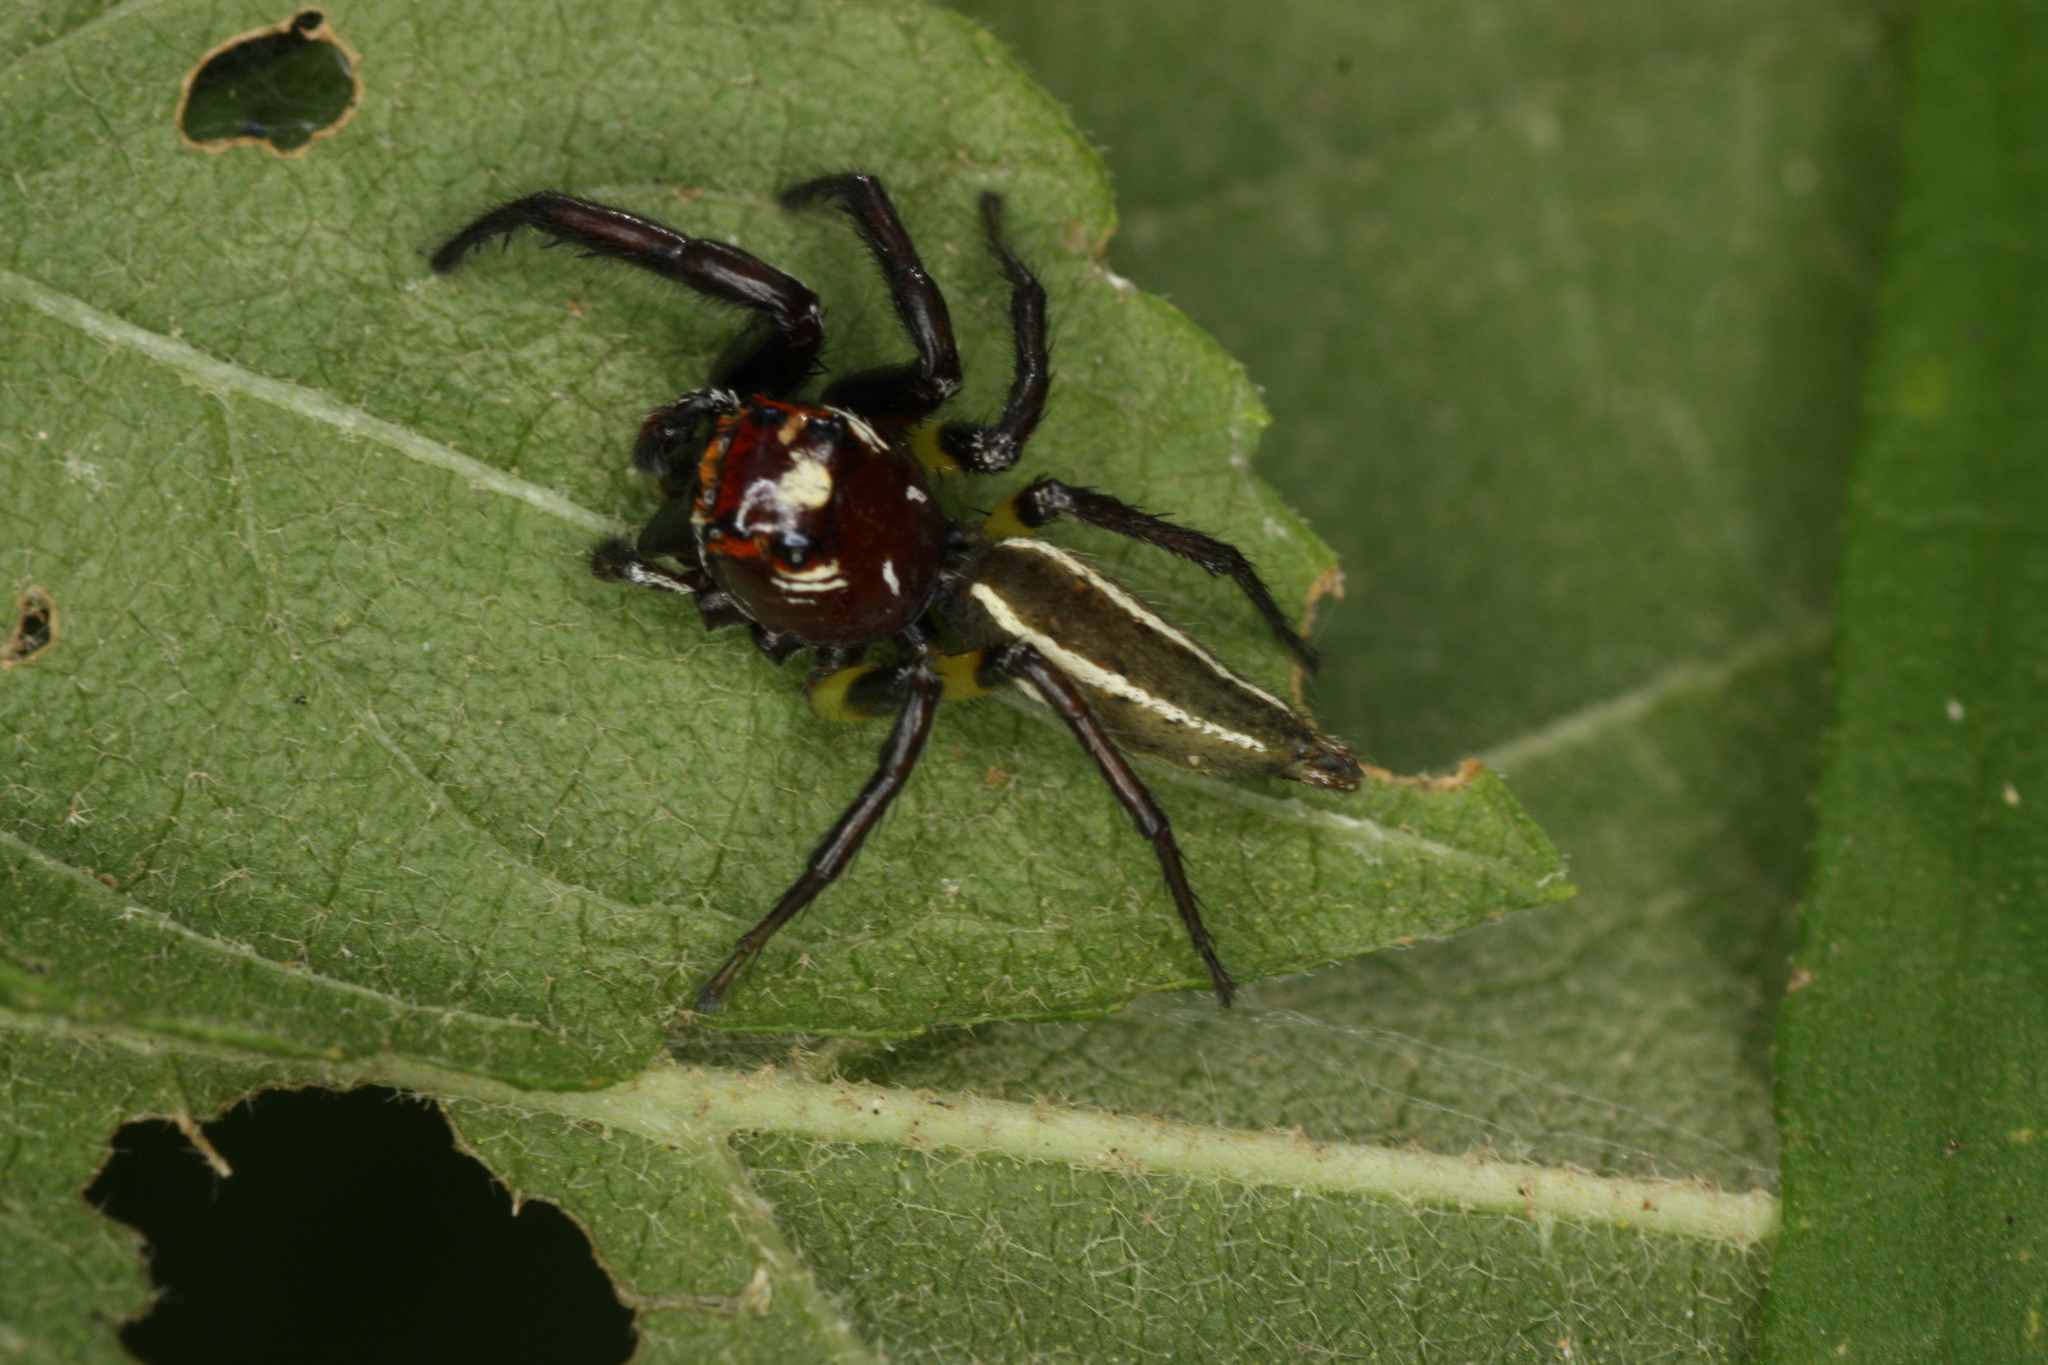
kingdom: Animalia
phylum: Arthropoda
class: Arachnida
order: Araneae
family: Salticidae
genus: Colonus
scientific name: Colonus sylvanus
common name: Jumping spiders
